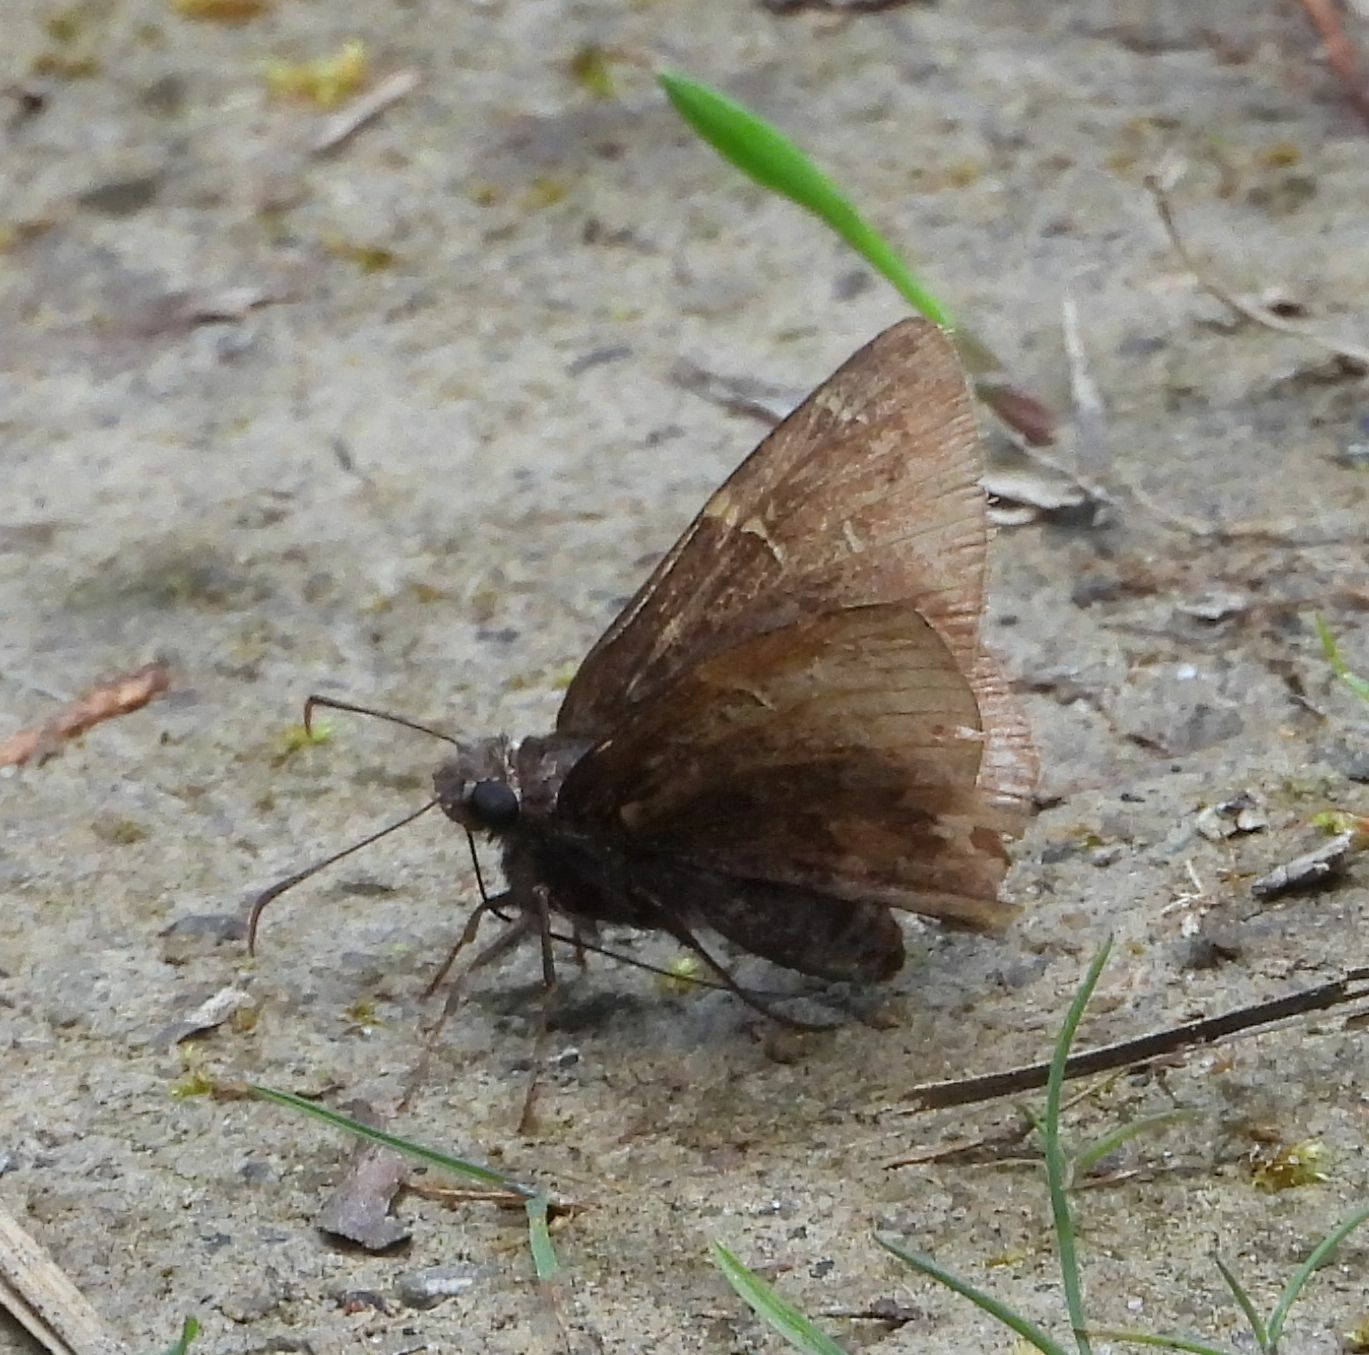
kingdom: Animalia
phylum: Arthropoda
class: Insecta
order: Lepidoptera
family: Hesperiidae
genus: Thorybes
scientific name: Thorybes pylades
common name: Northern cloudywing
